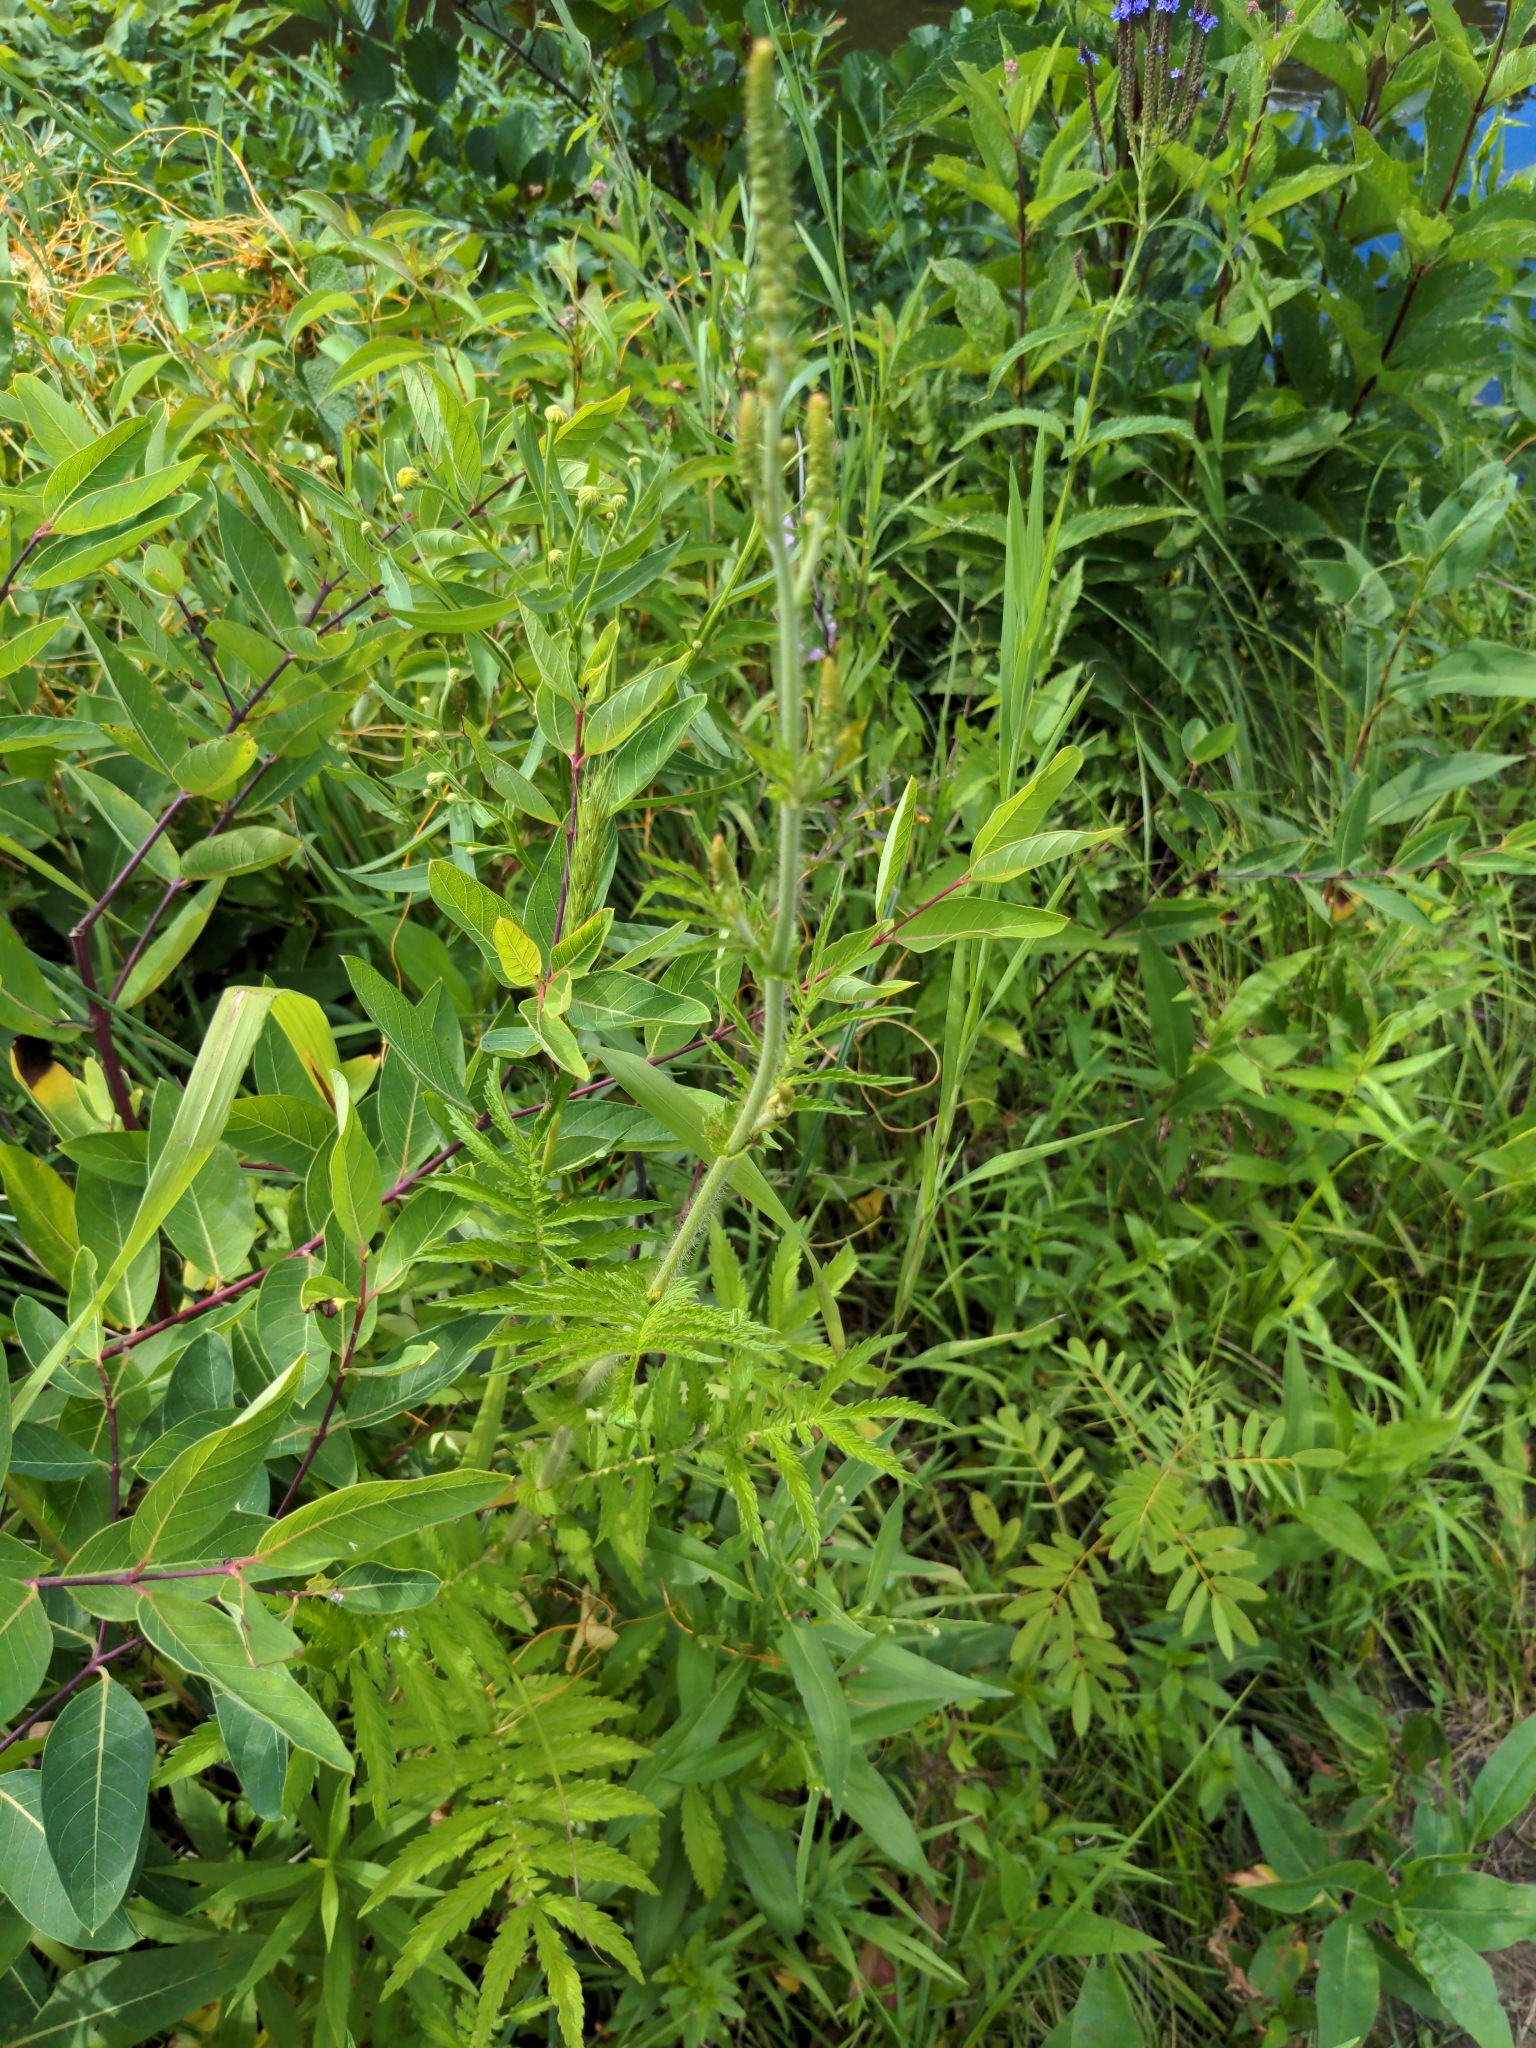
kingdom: Plantae
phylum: Tracheophyta
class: Magnoliopsida
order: Rosales
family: Rosaceae
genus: Agrimonia
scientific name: Agrimonia parviflora
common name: Harvest-lice
